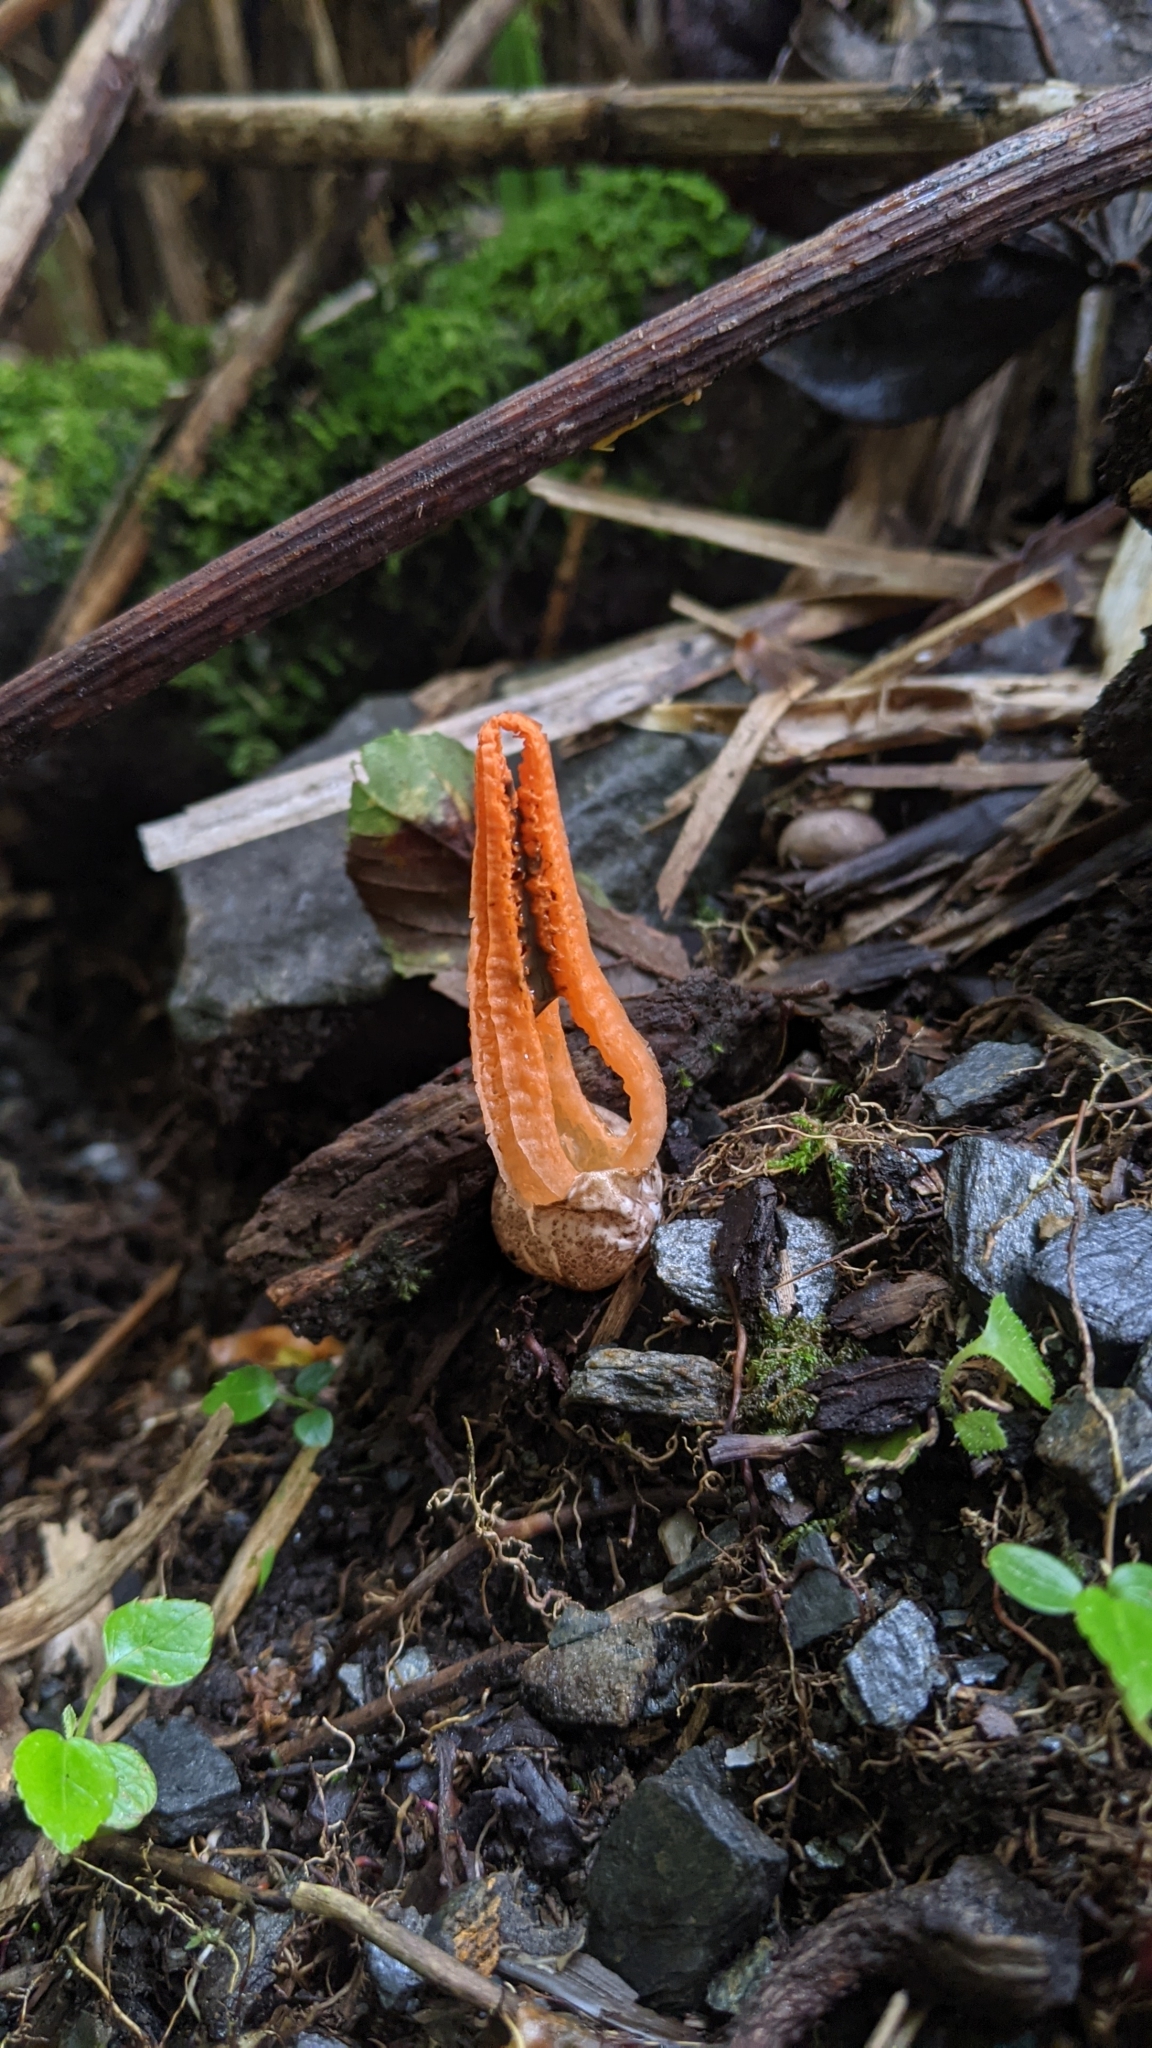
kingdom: Fungi
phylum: Basidiomycota
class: Agaricomycetes
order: Phallales
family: Phallaceae
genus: Pseudocolus
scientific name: Pseudocolus fusiformis
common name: Stinky squid
